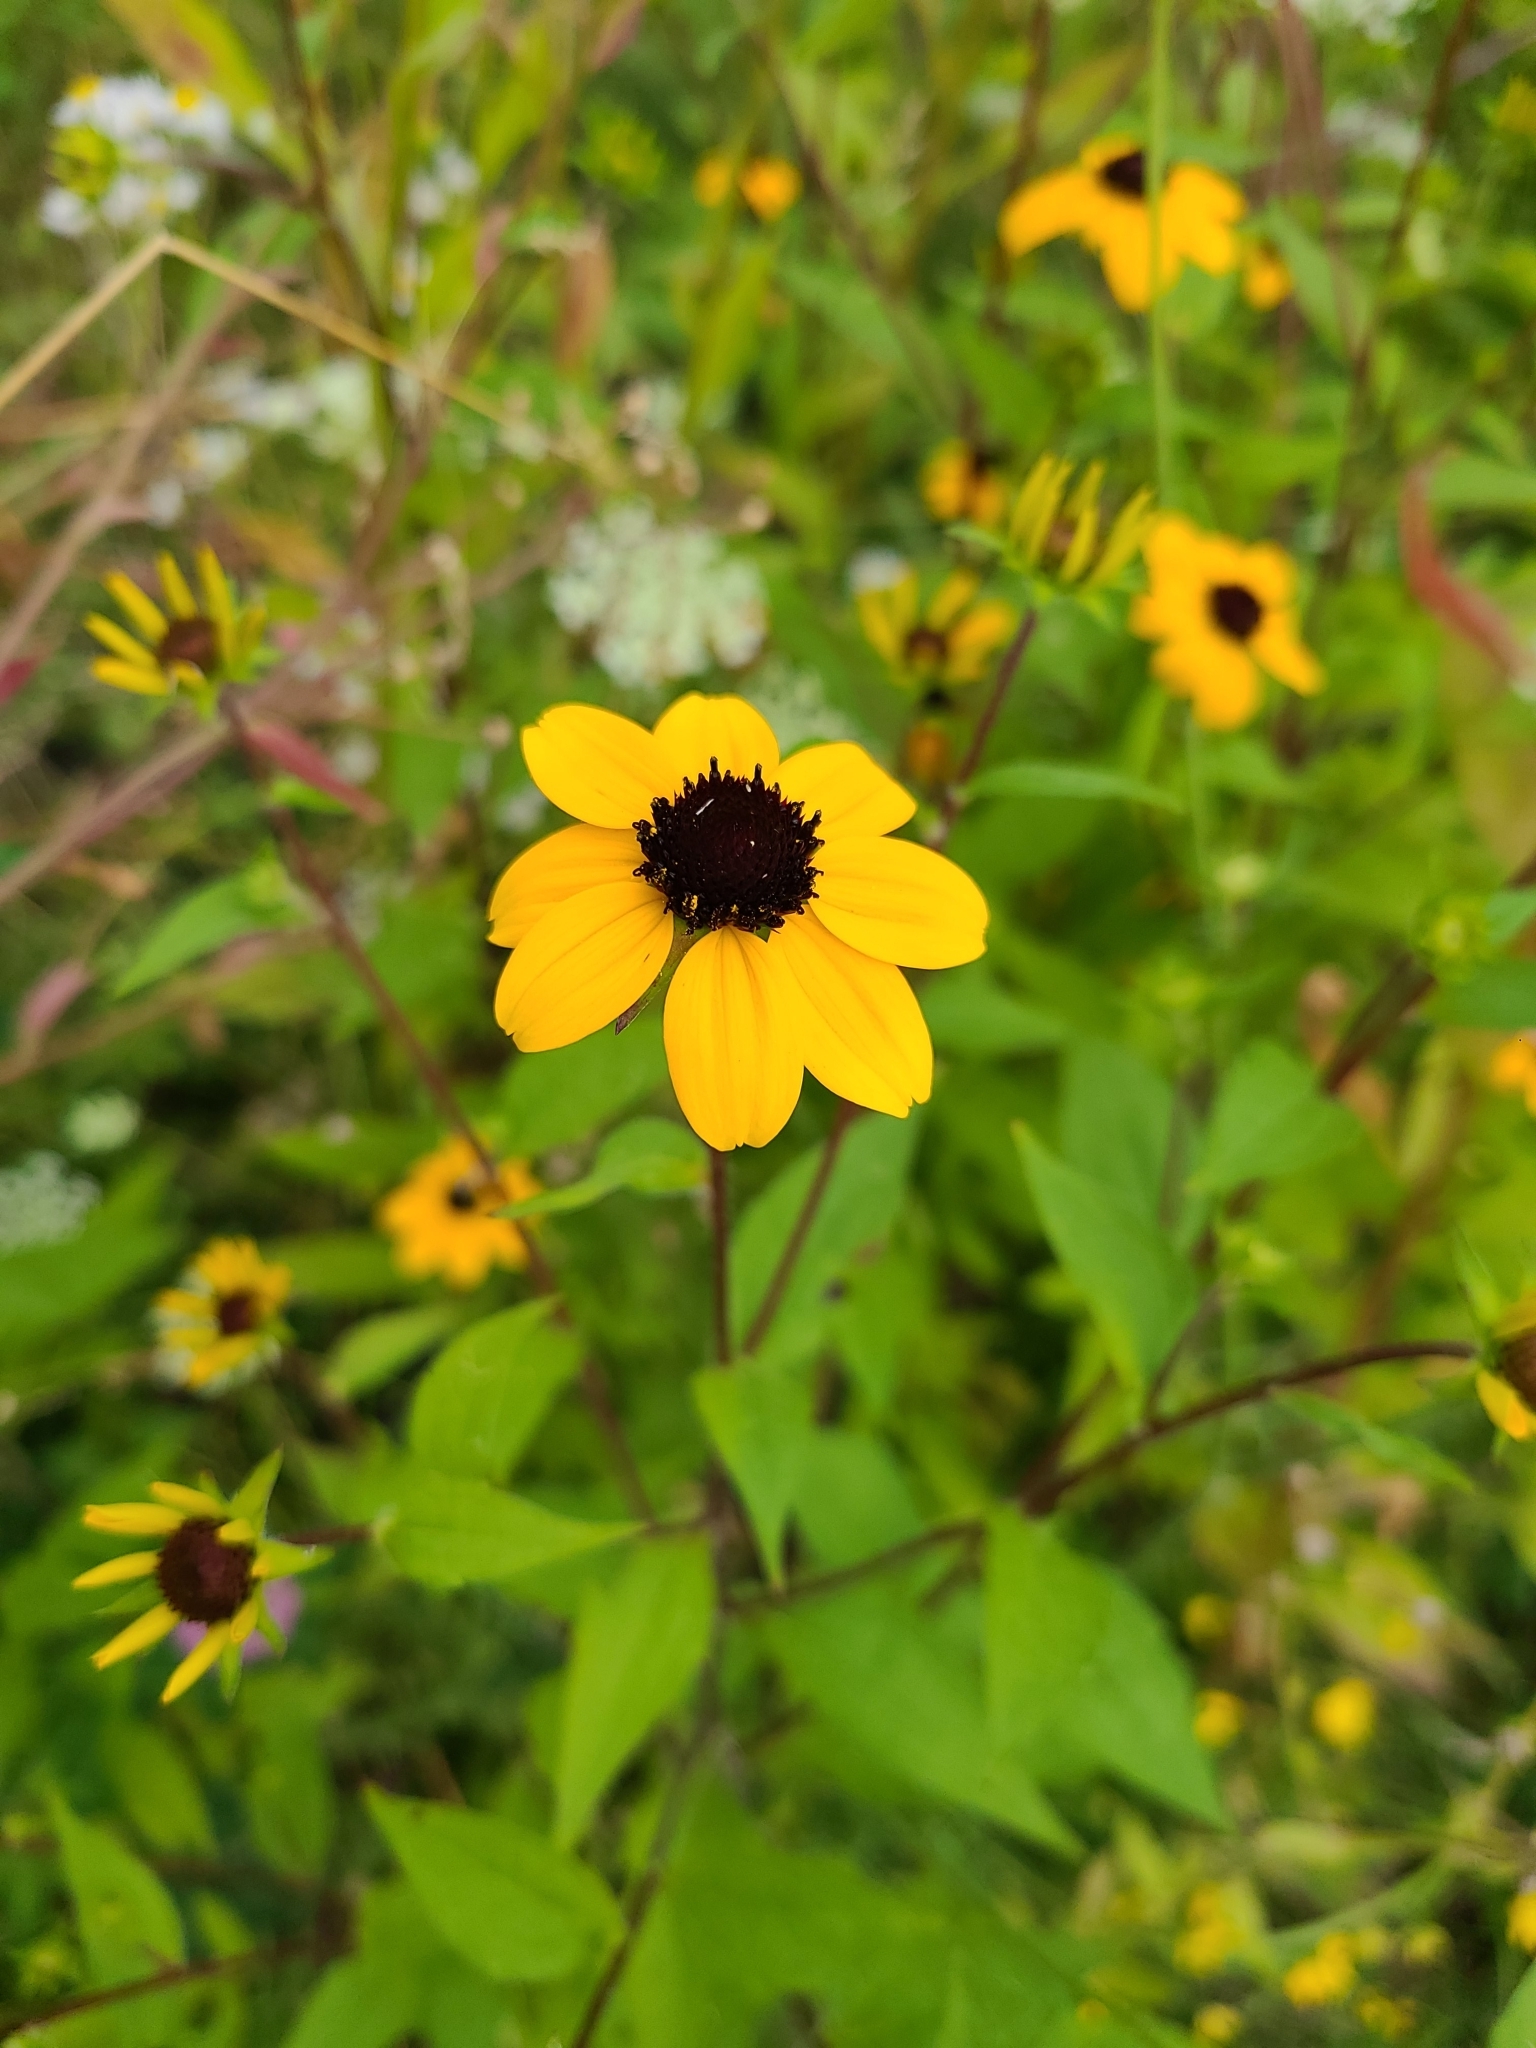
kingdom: Plantae
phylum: Tracheophyta
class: Magnoliopsida
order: Asterales
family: Asteraceae
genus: Rudbeckia
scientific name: Rudbeckia triloba
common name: Thin-leaved coneflower
